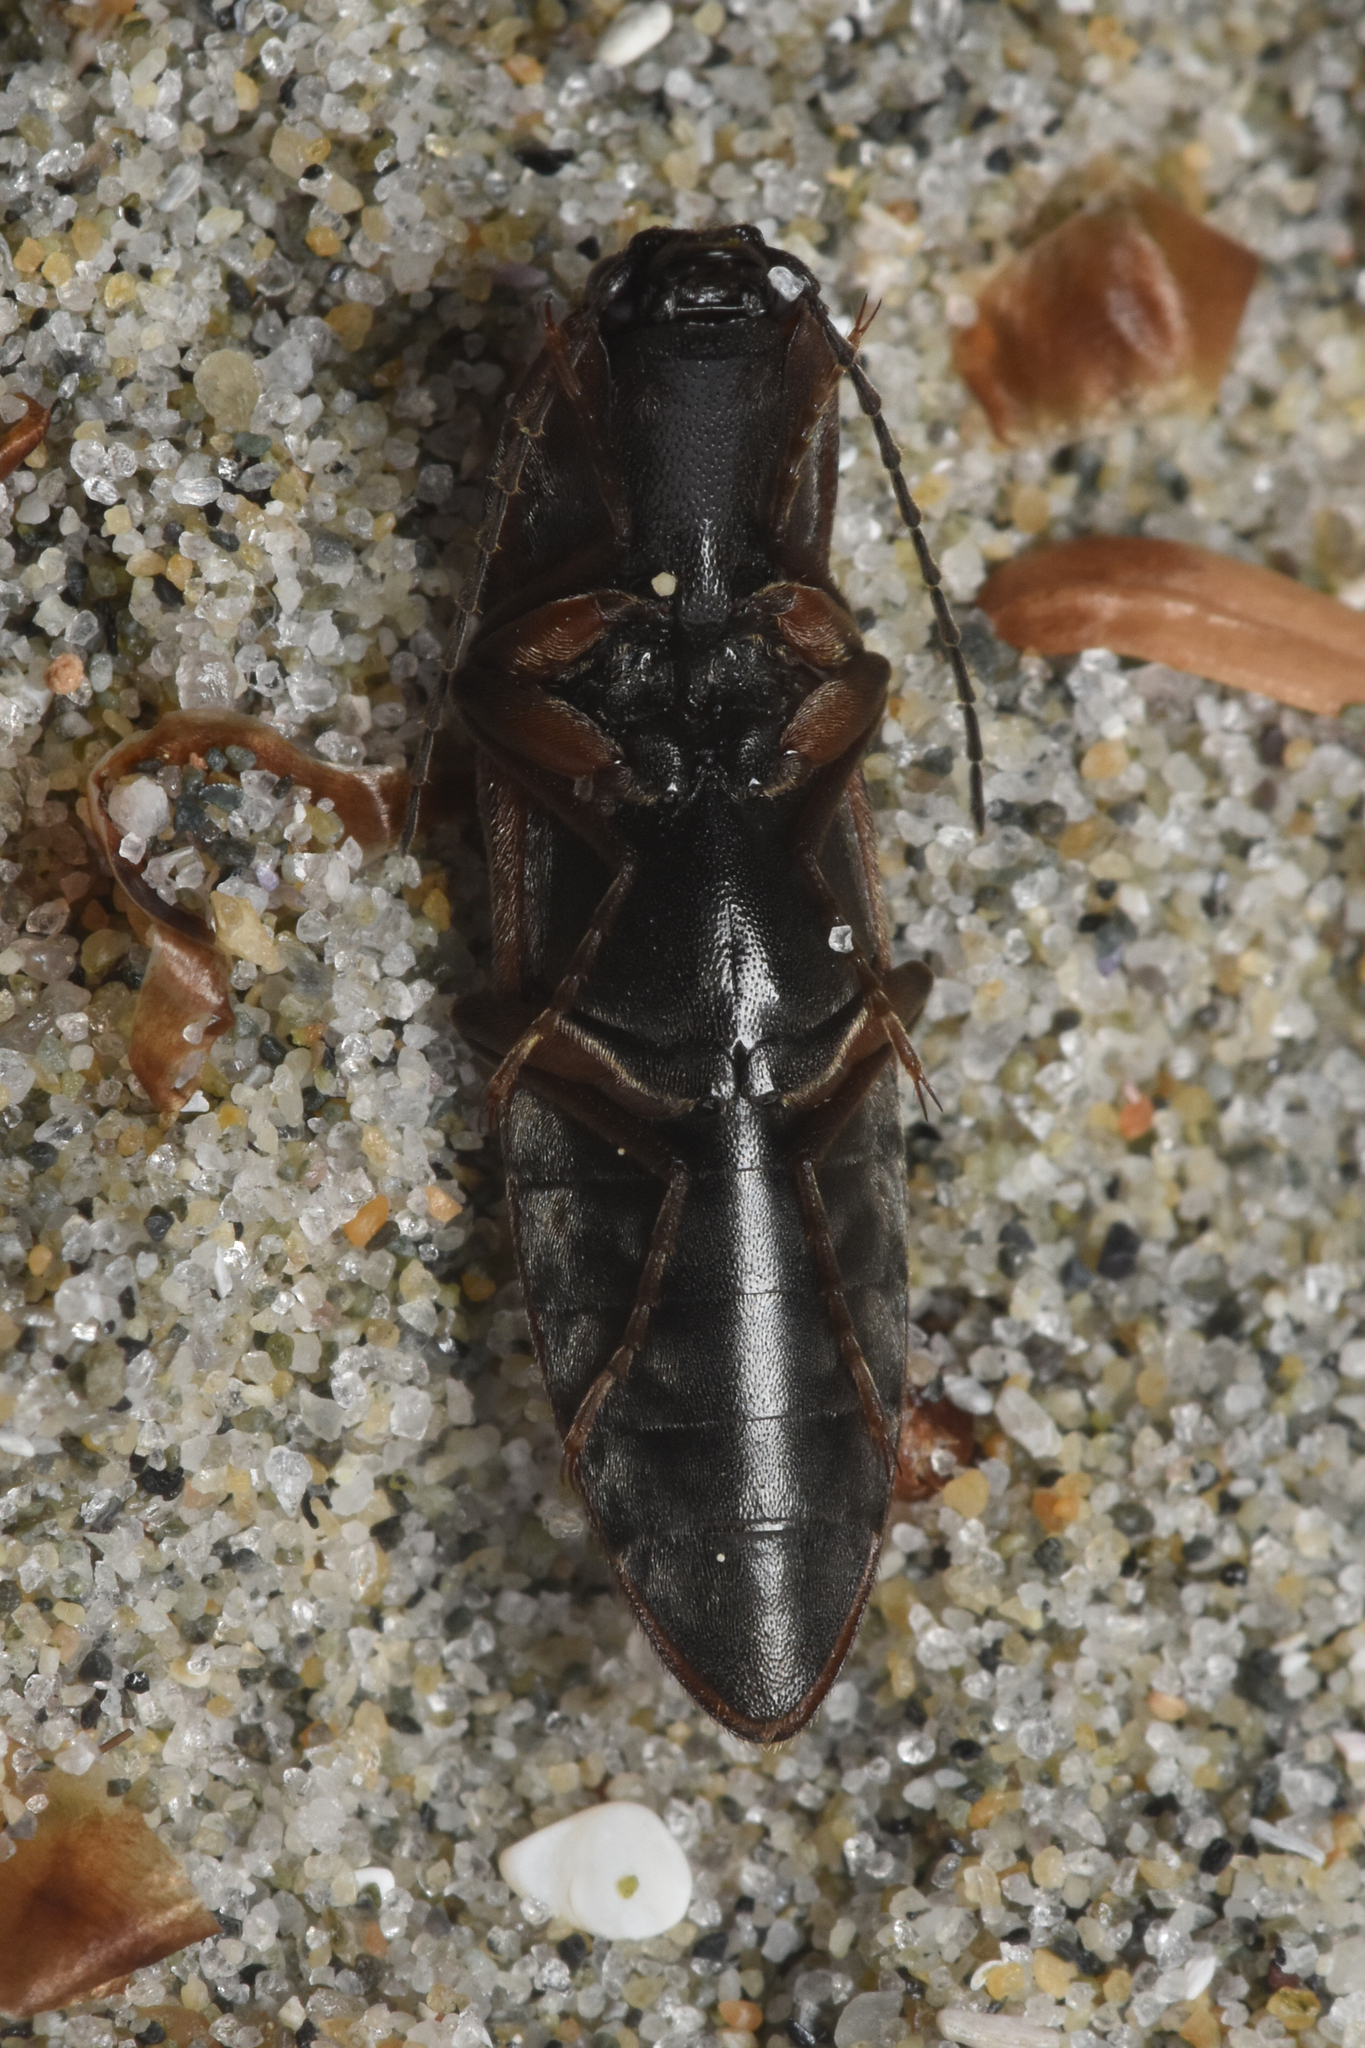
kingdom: Animalia
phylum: Arthropoda
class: Insecta
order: Coleoptera
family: Elateridae
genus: Acteniceromorphus
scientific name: Acteniceromorphus volitans
